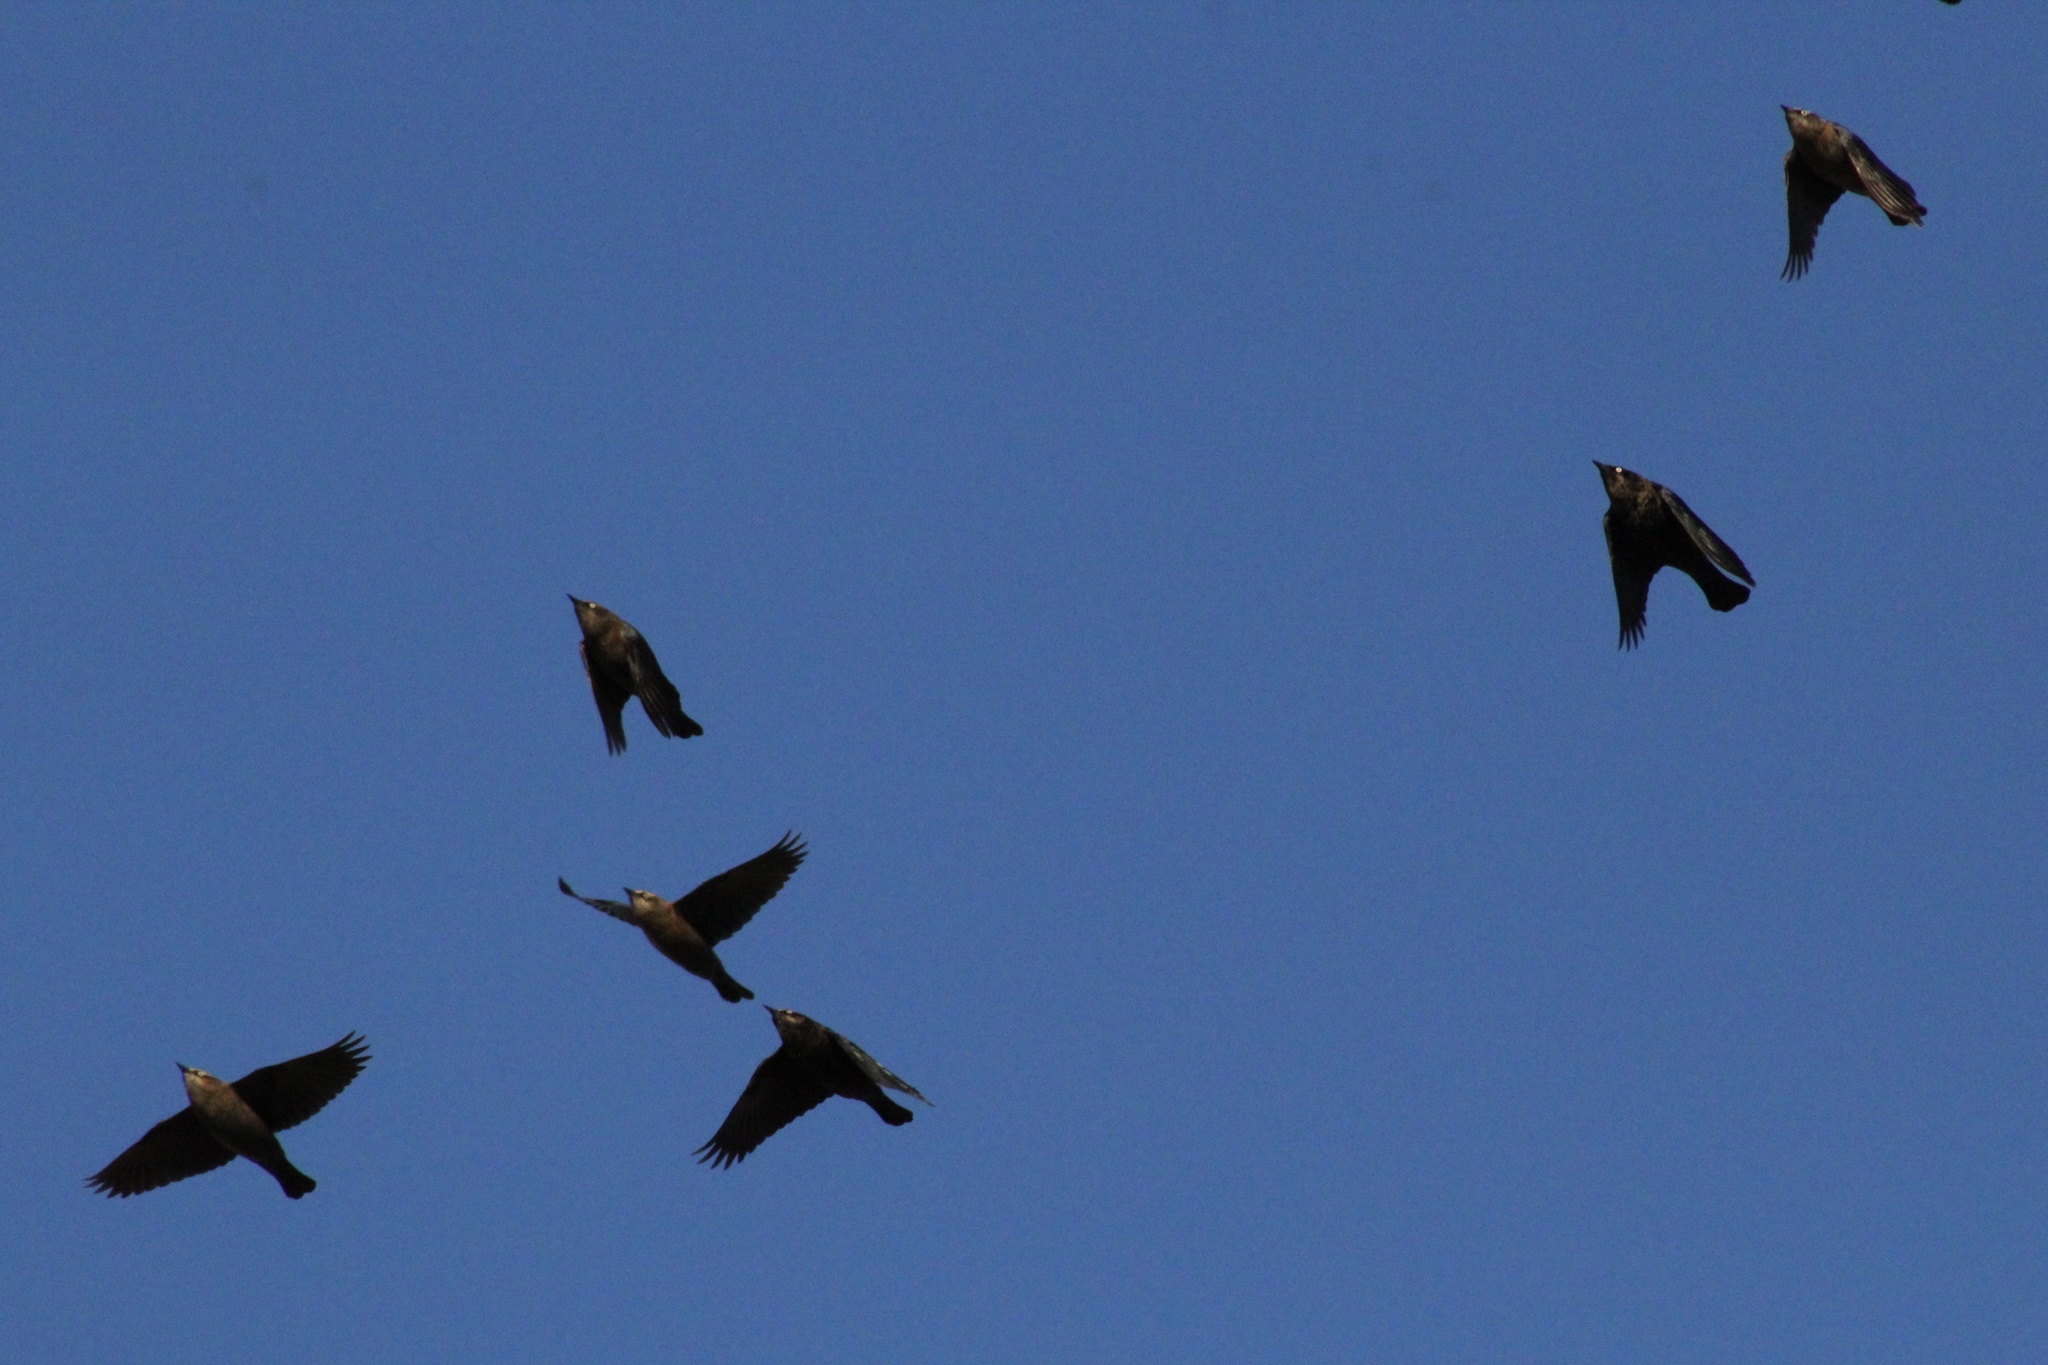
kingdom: Animalia
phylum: Chordata
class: Aves
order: Passeriformes
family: Icteridae
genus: Euphagus
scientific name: Euphagus carolinus
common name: Rusty blackbird
